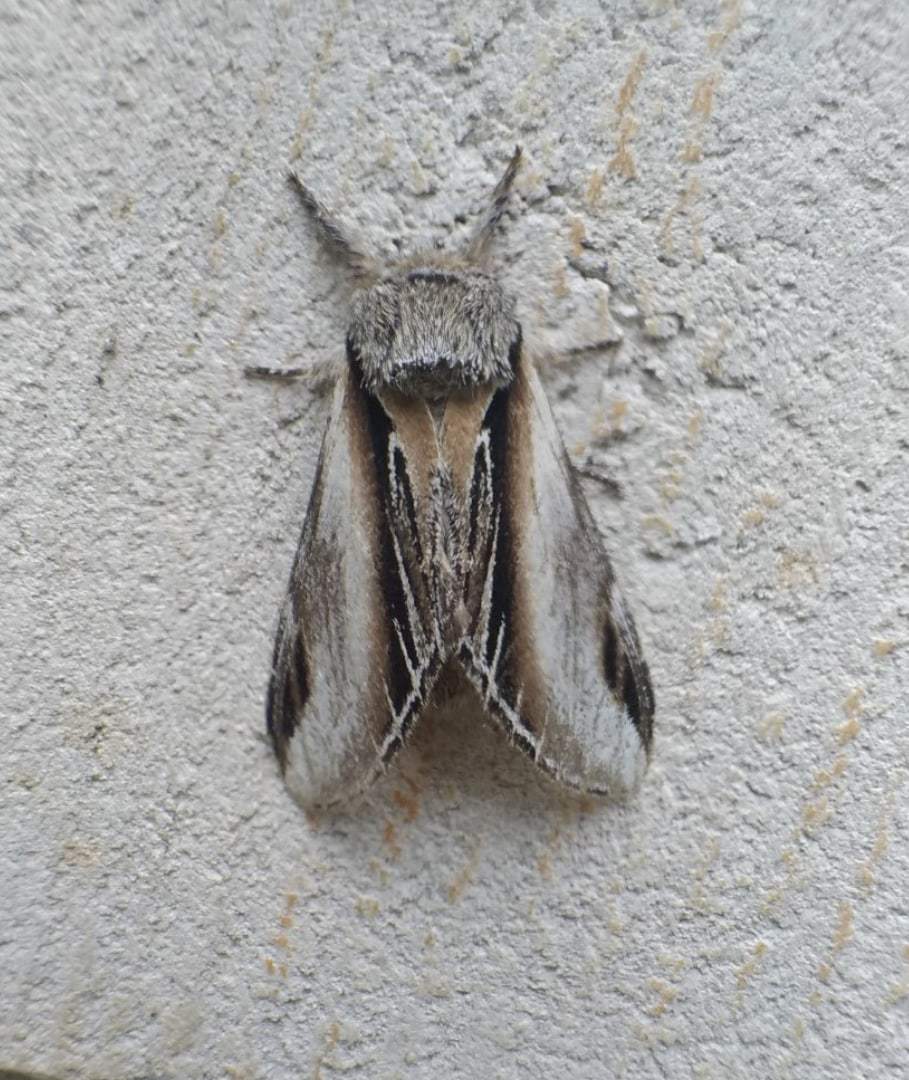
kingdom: Animalia
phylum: Arthropoda
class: Insecta
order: Lepidoptera
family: Notodontidae
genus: Pheosia
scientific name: Pheosia tremula
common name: Swallow prominent
